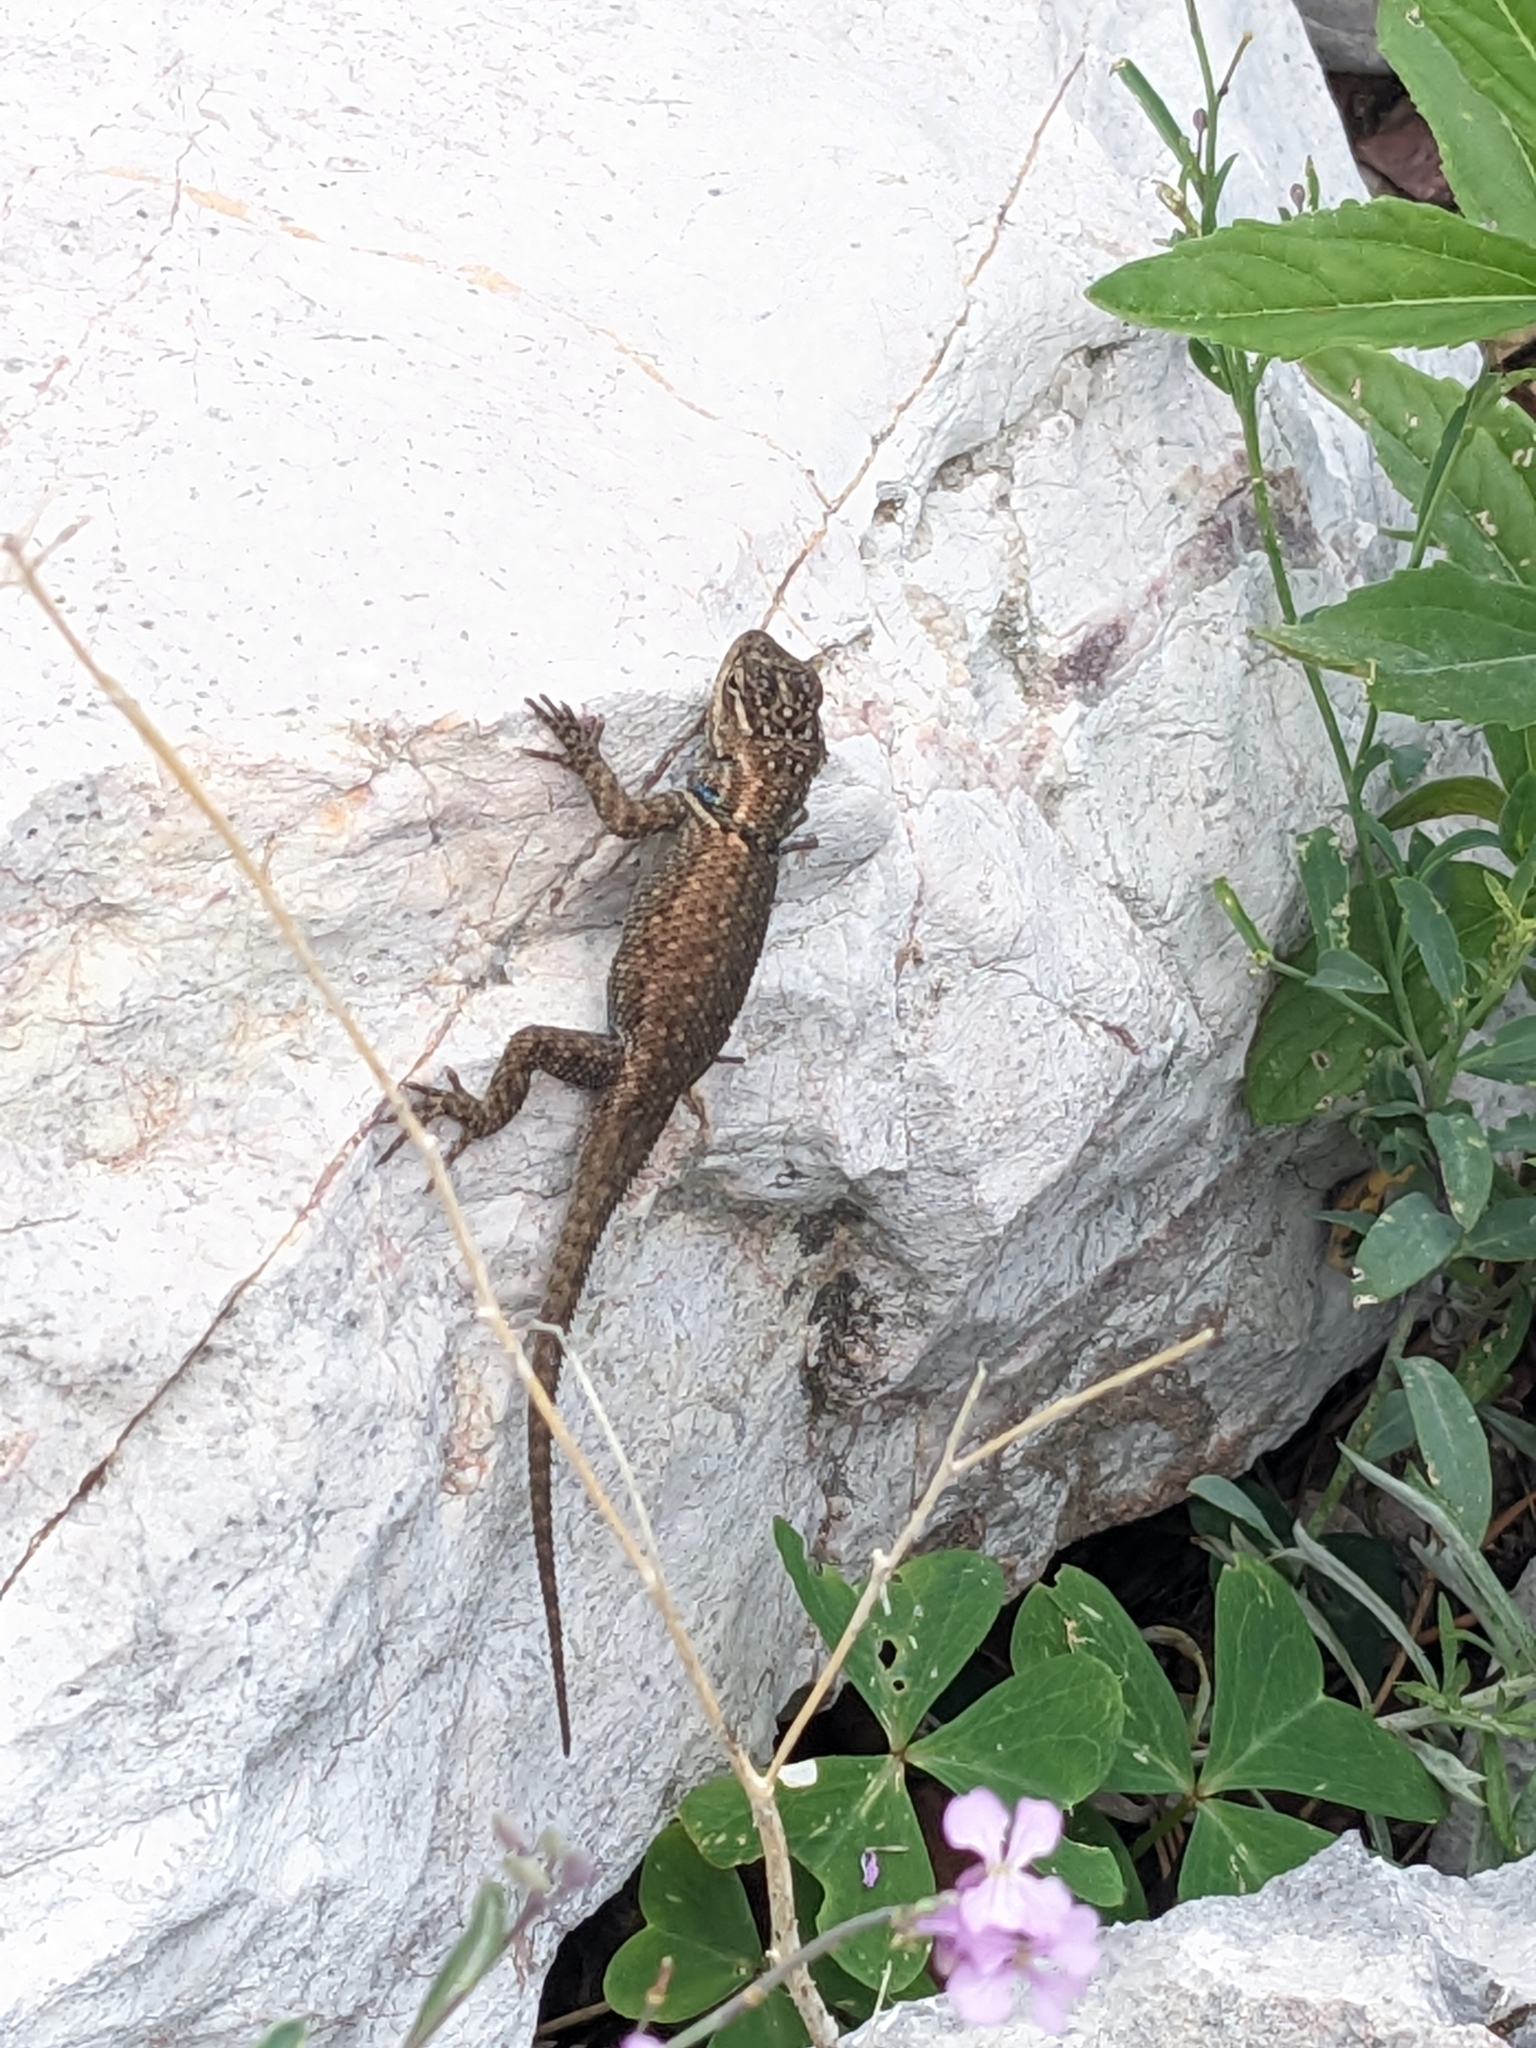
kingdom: Animalia
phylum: Chordata
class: Squamata
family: Phrynosomatidae
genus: Sceloporus
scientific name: Sceloporus jarrovii
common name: Yarrow's spiny lizard
